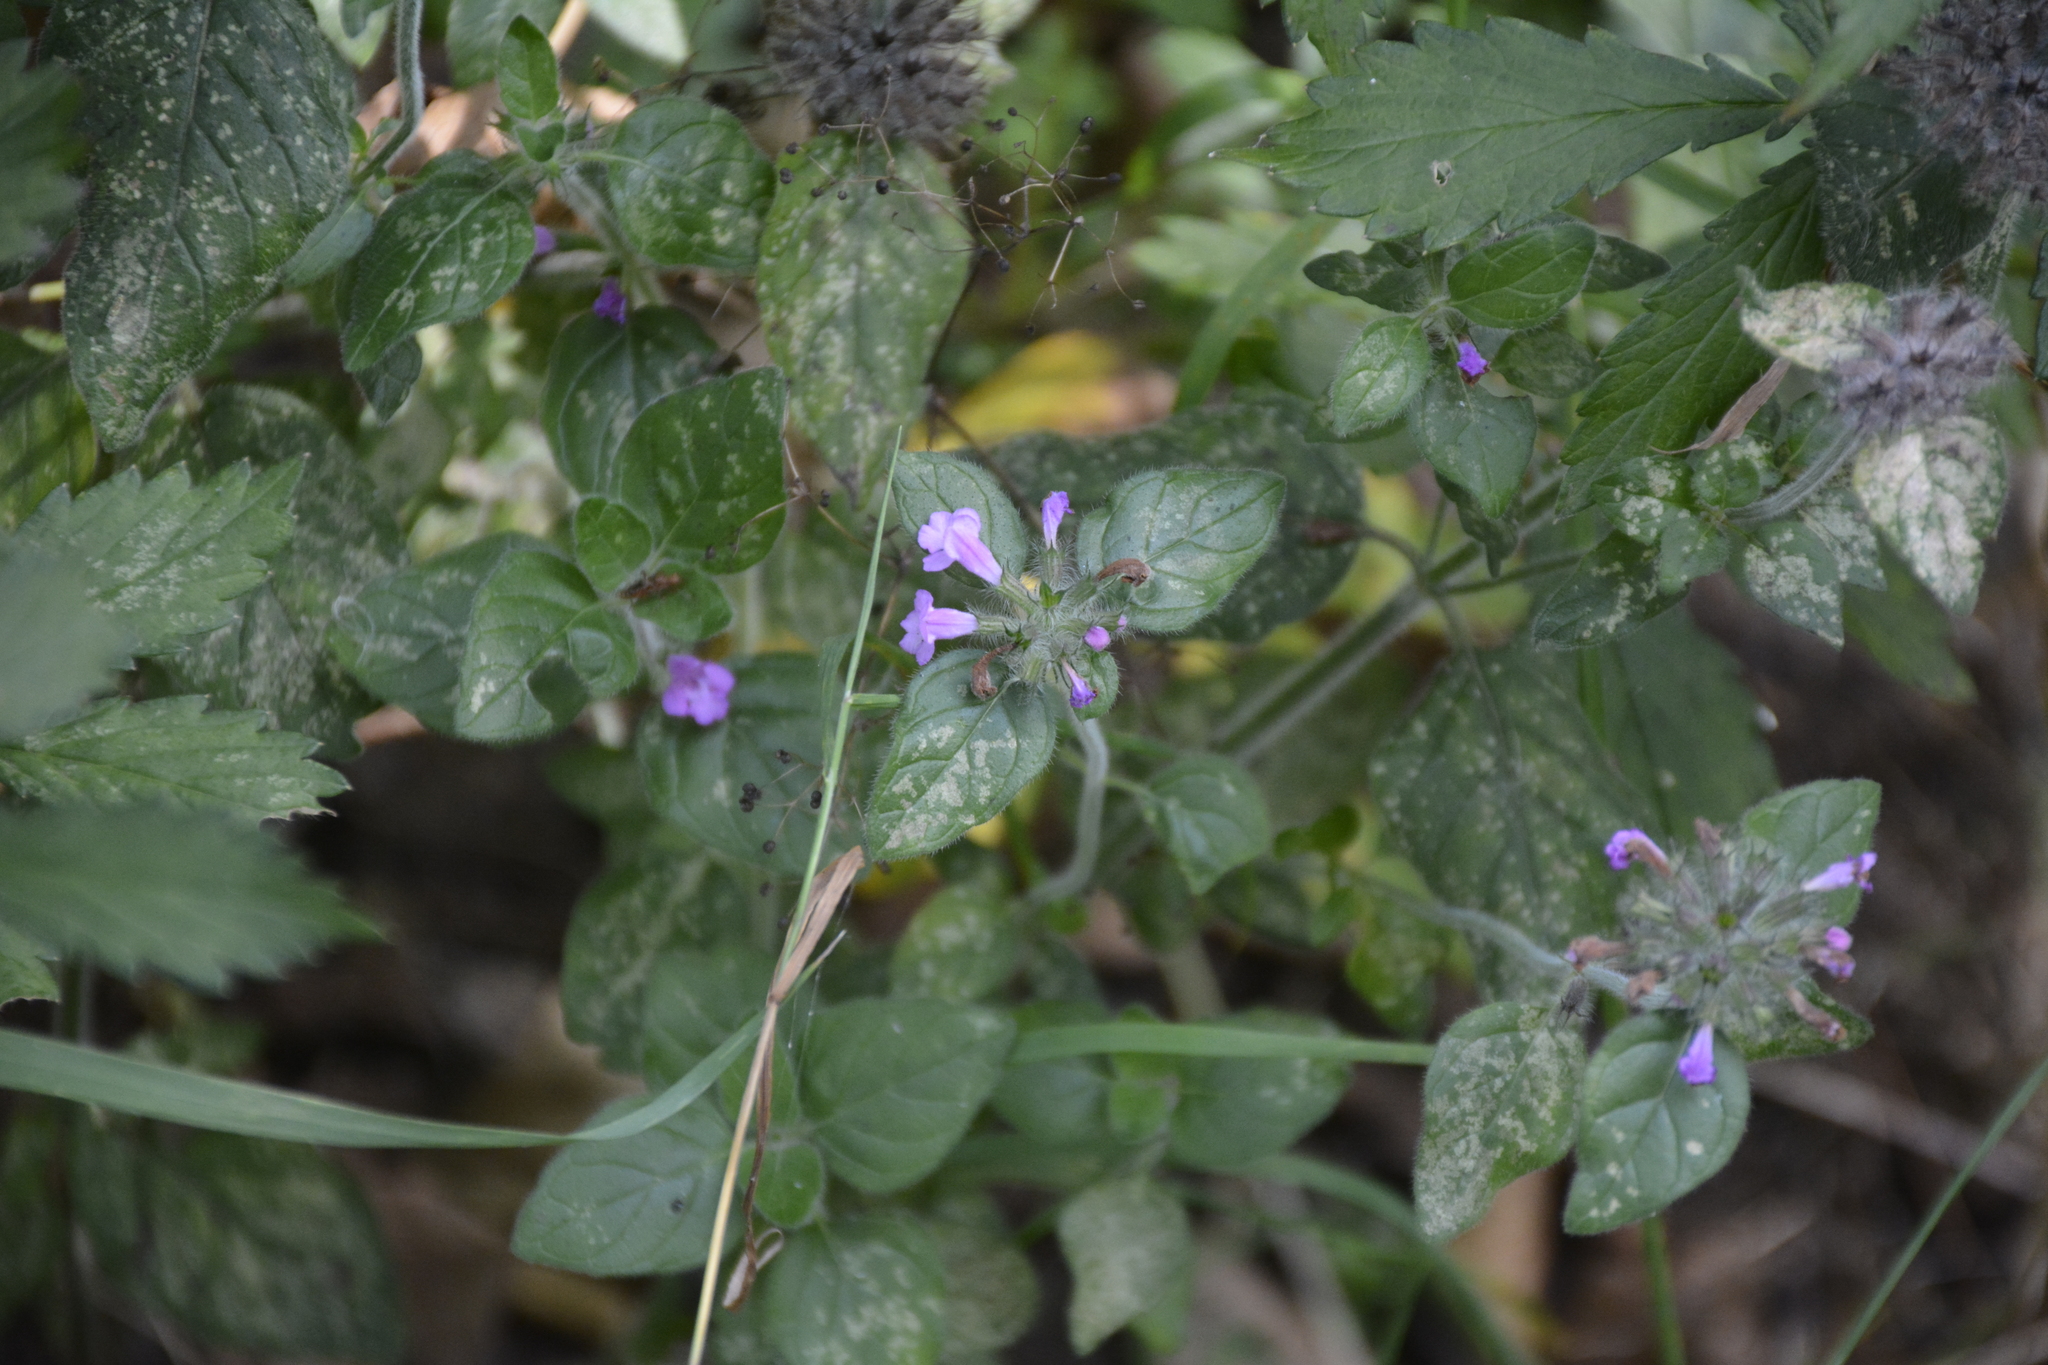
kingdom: Plantae
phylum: Tracheophyta
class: Magnoliopsida
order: Lamiales
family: Lamiaceae
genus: Clinopodium
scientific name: Clinopodium vulgare
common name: Wild basil
